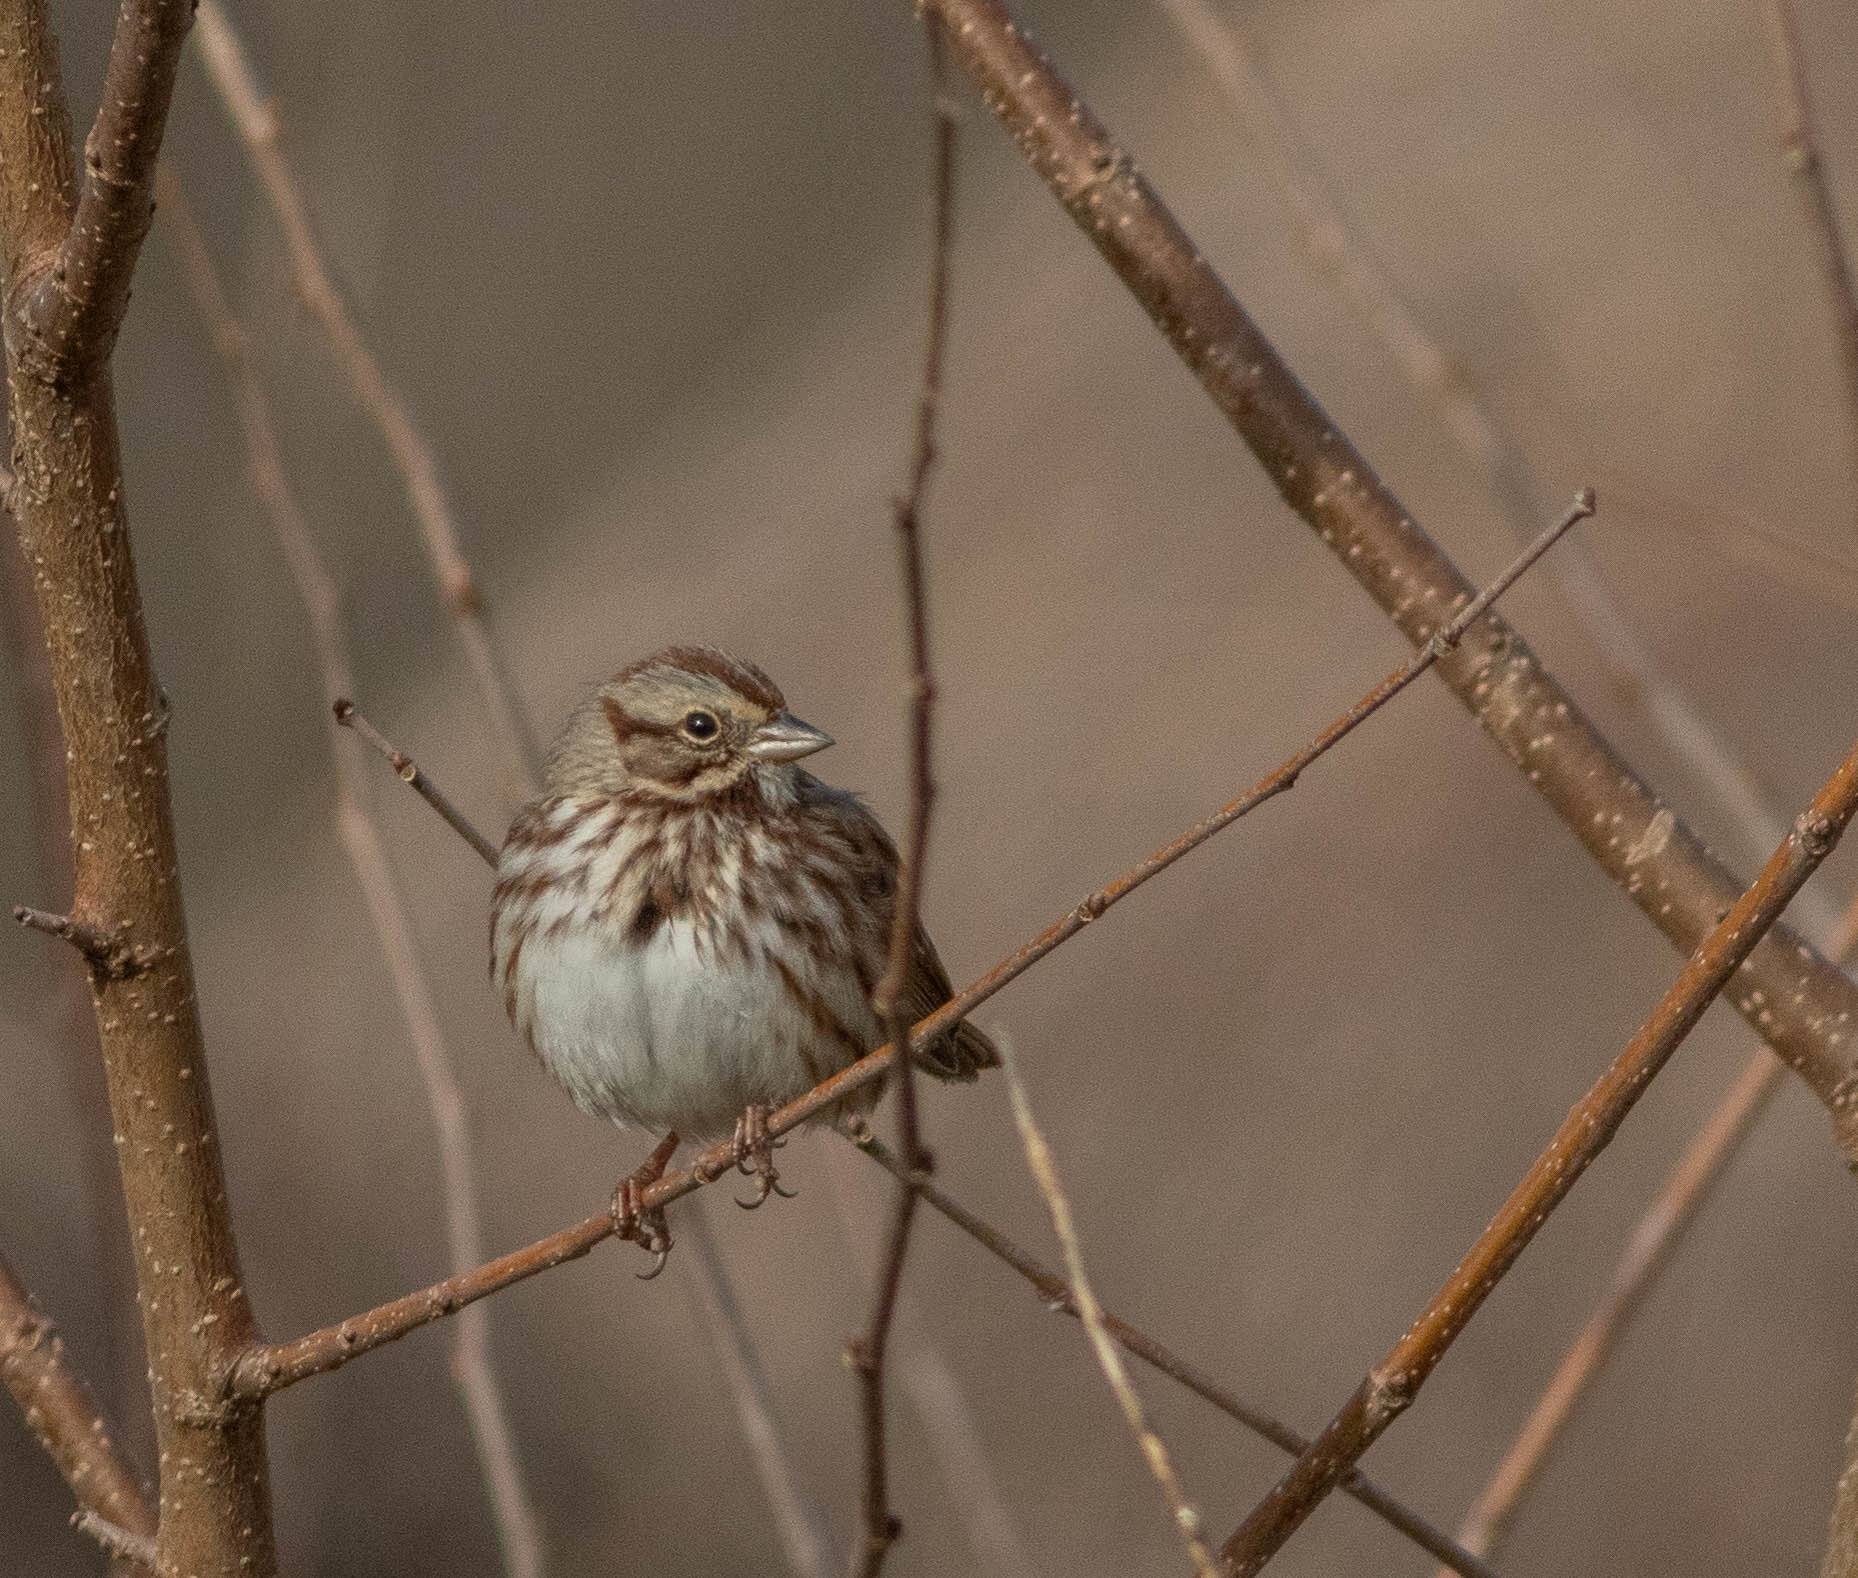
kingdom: Animalia
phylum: Chordata
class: Aves
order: Passeriformes
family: Passerellidae
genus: Melospiza
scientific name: Melospiza melodia
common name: Song sparrow
